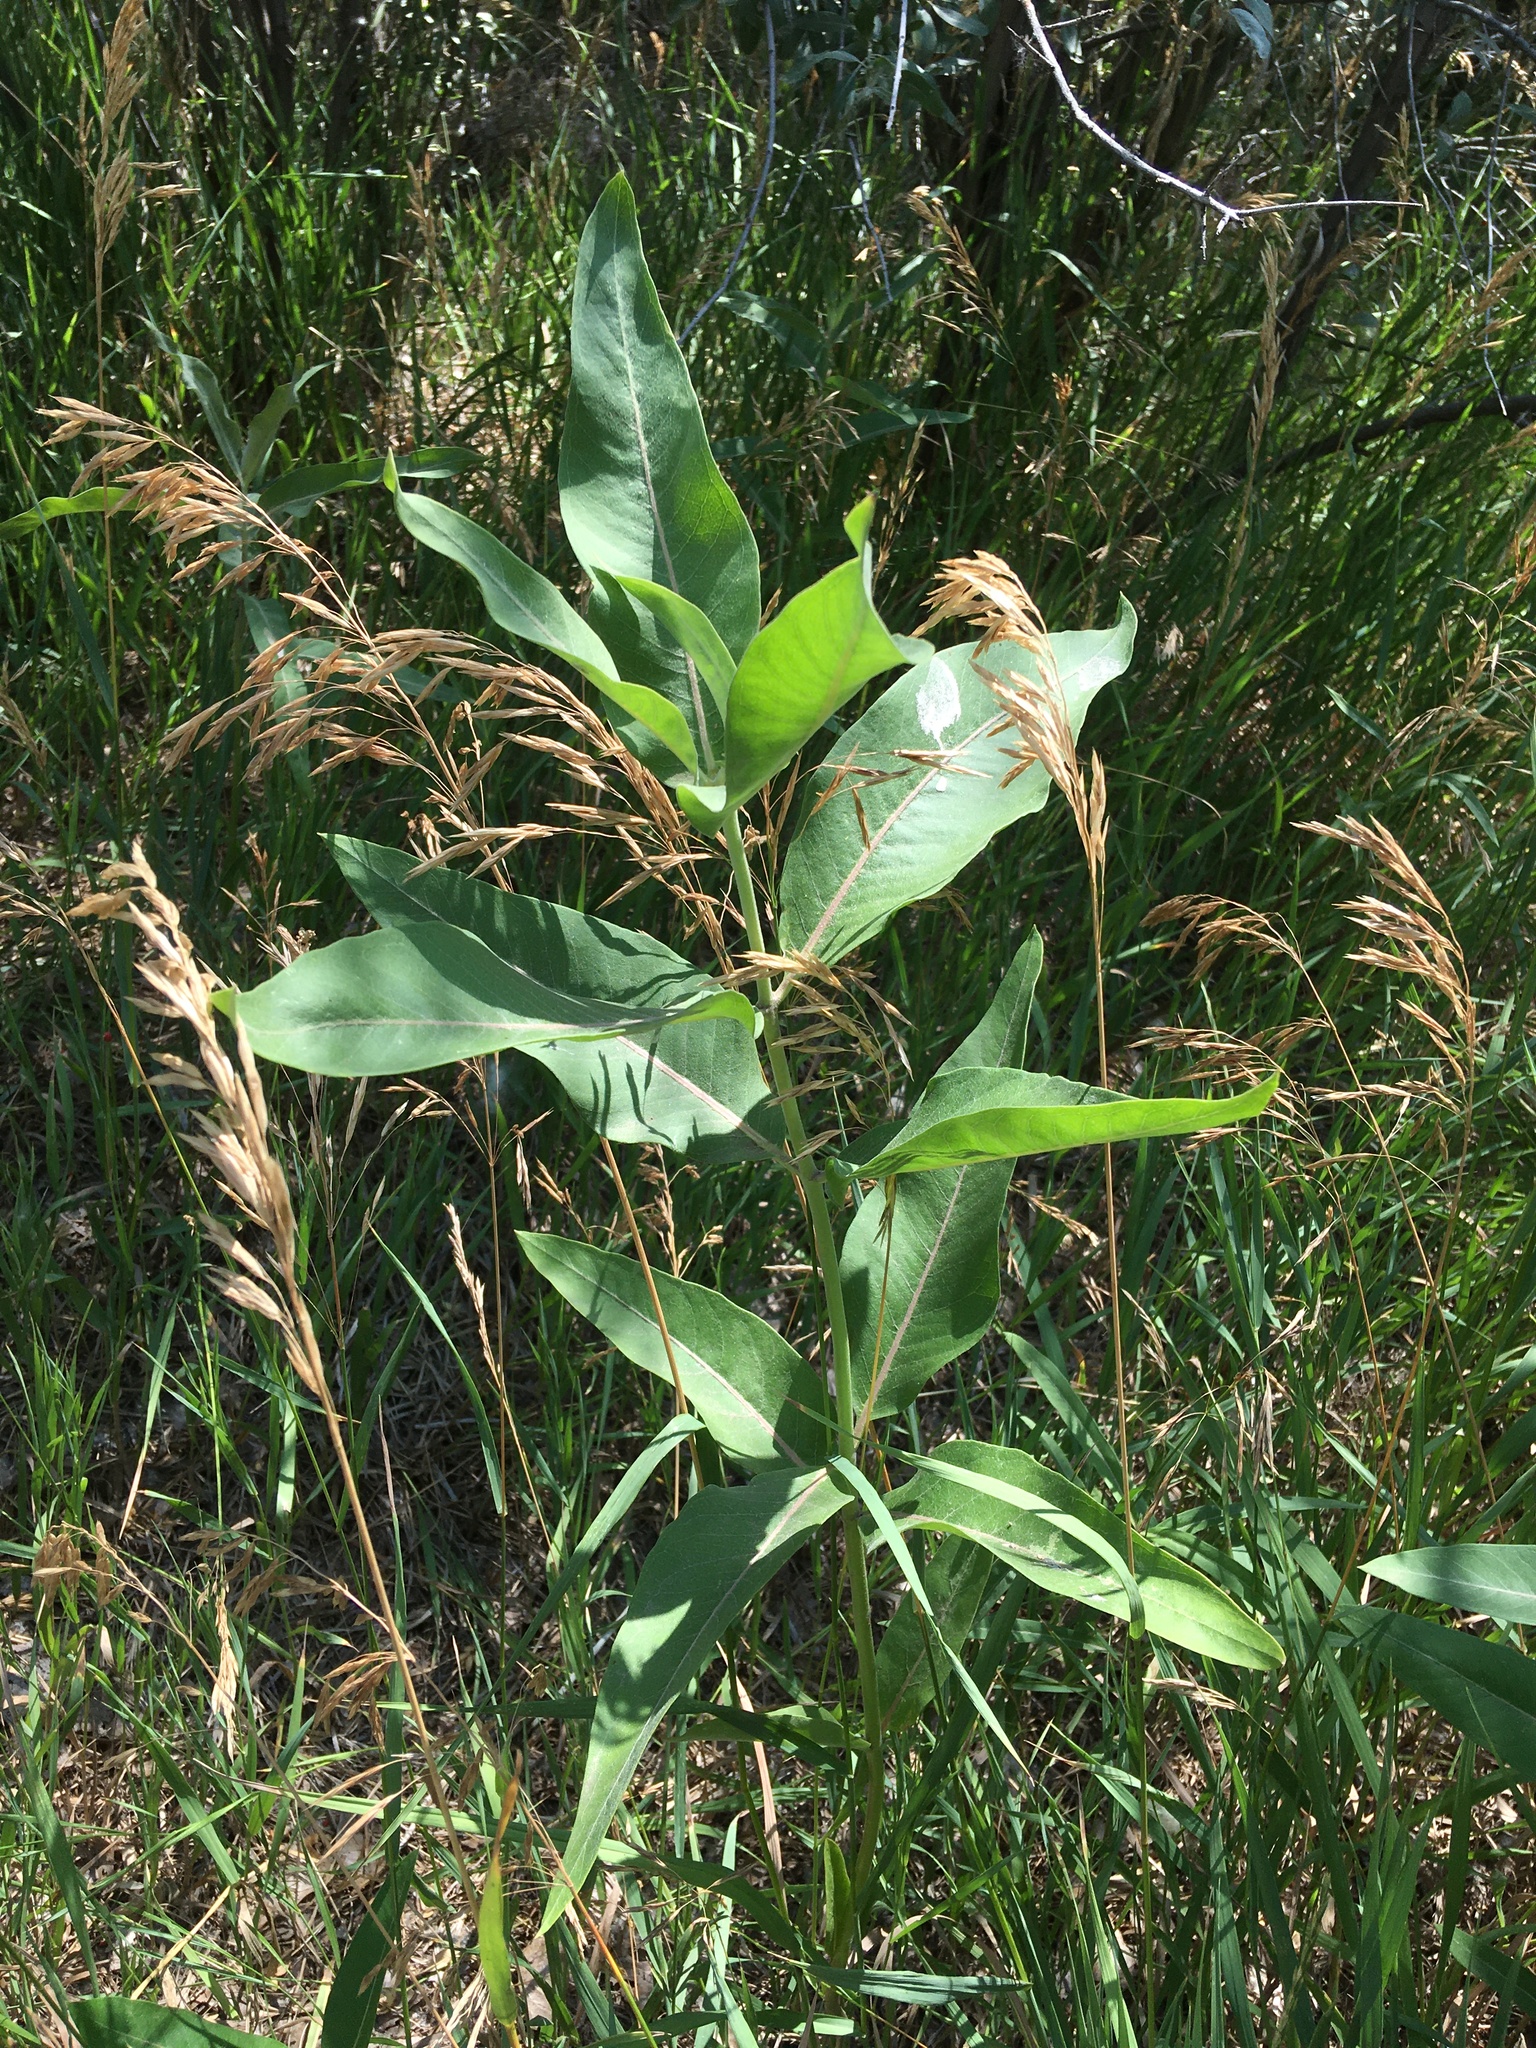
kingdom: Plantae
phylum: Tracheophyta
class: Magnoliopsida
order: Gentianales
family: Apocynaceae
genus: Asclepias
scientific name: Asclepias speciosa
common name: Showy milkweed
